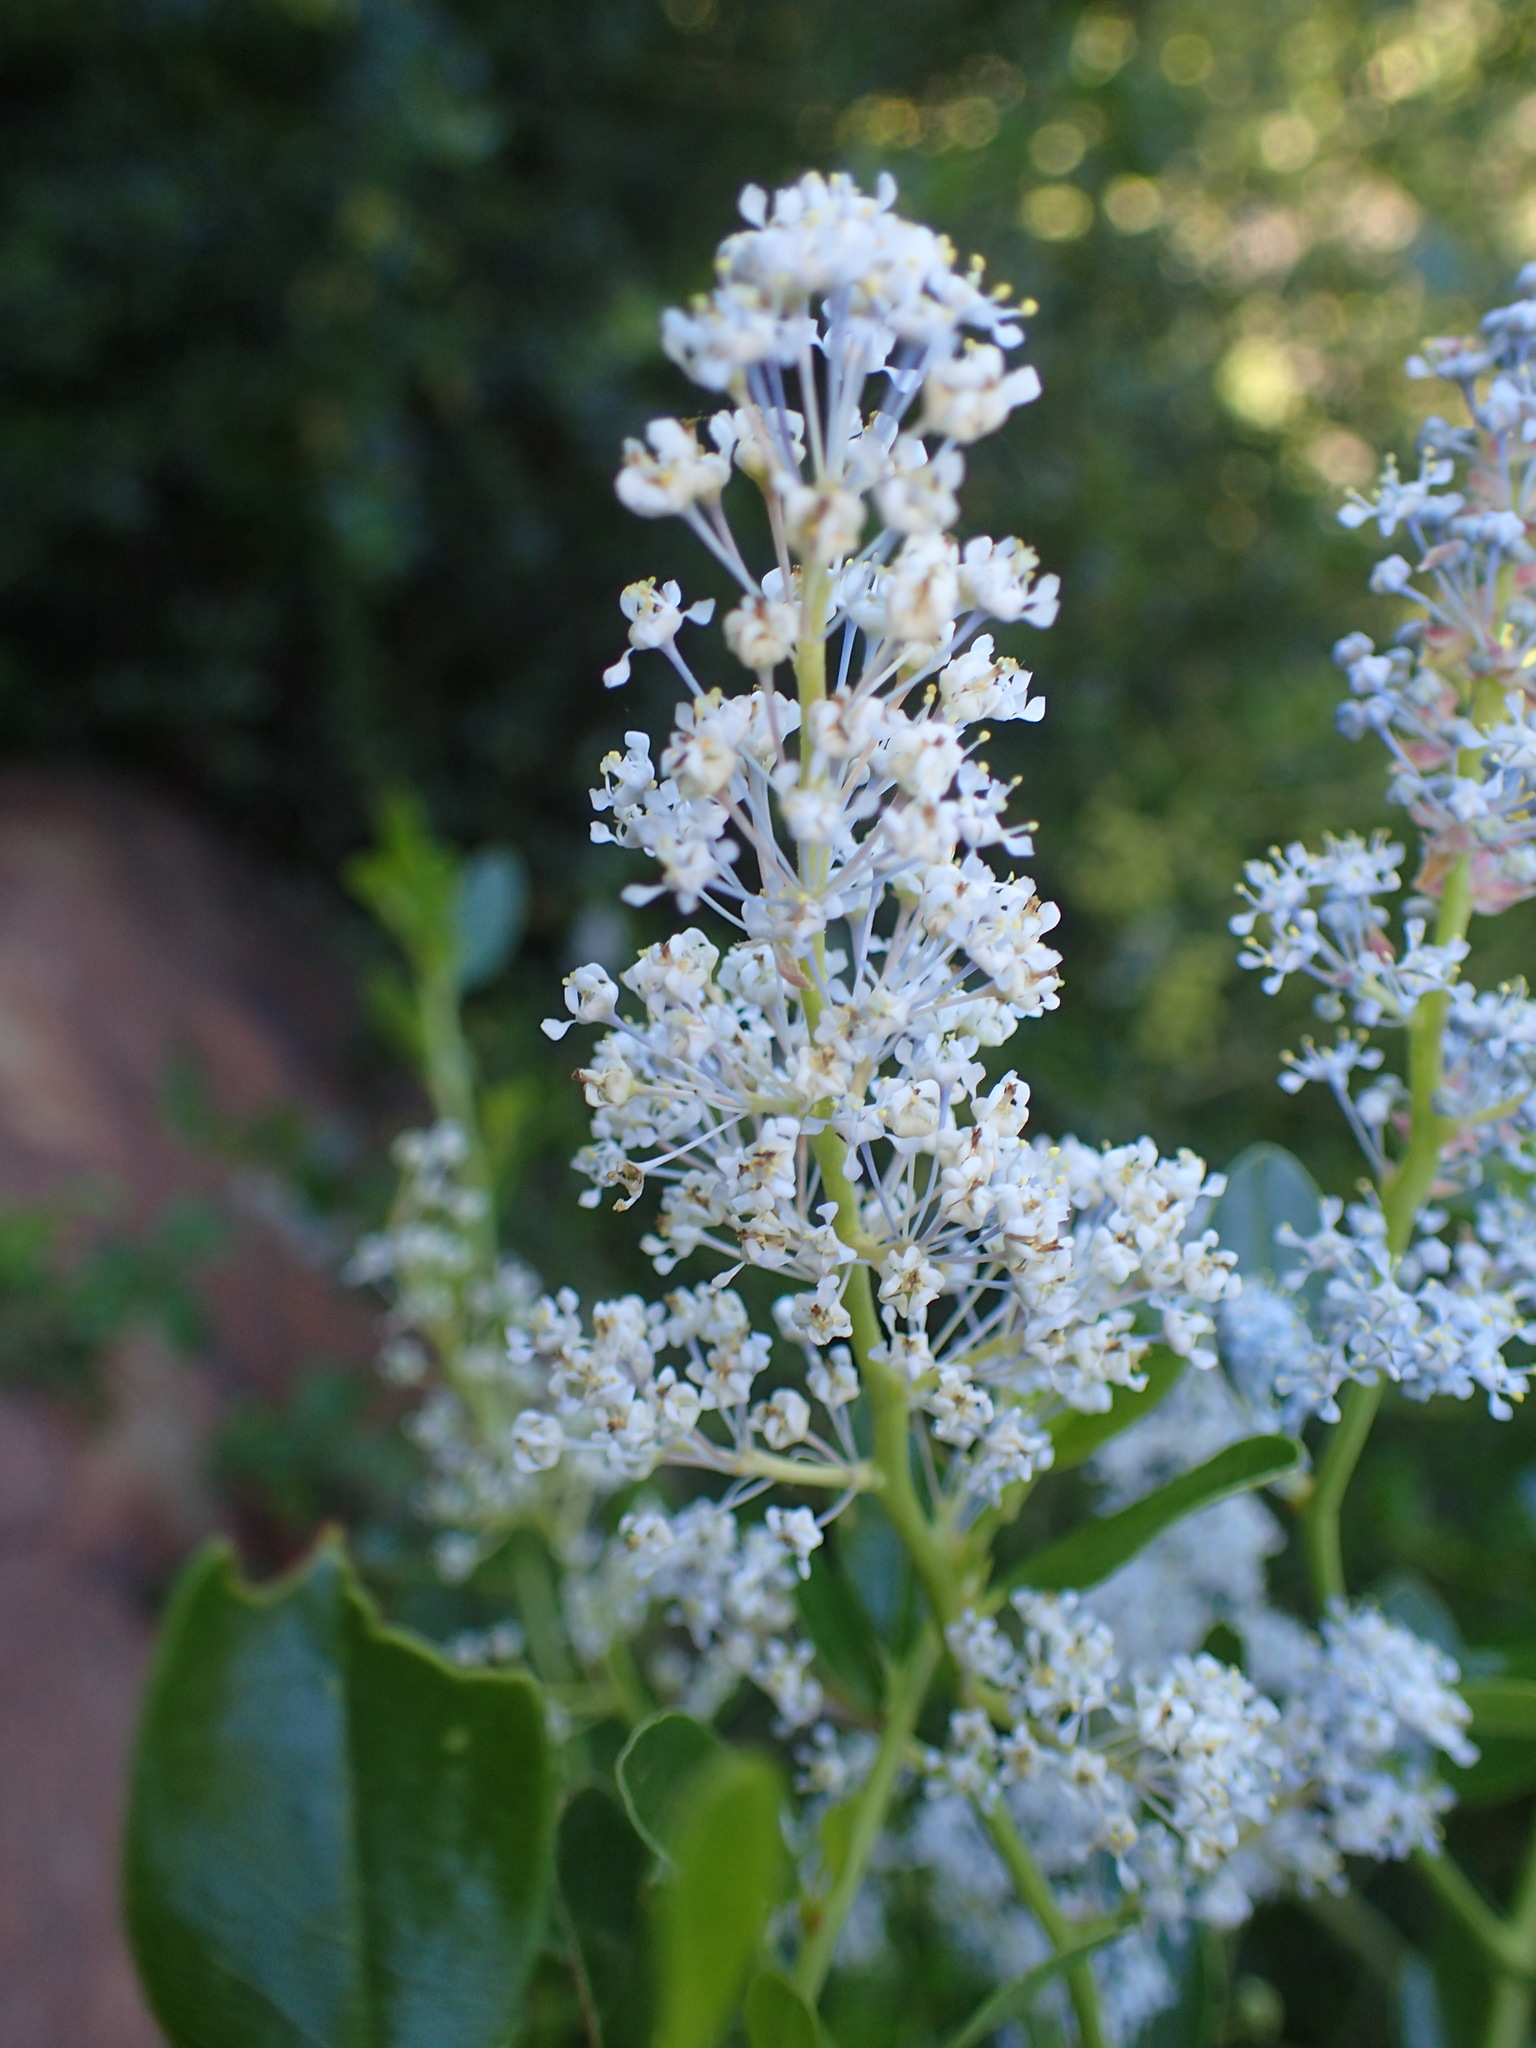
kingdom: Plantae
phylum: Tracheophyta
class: Magnoliopsida
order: Rosales
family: Rhamnaceae
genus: Ceanothus
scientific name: Ceanothus spinosus
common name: Greenbark whitethorn
